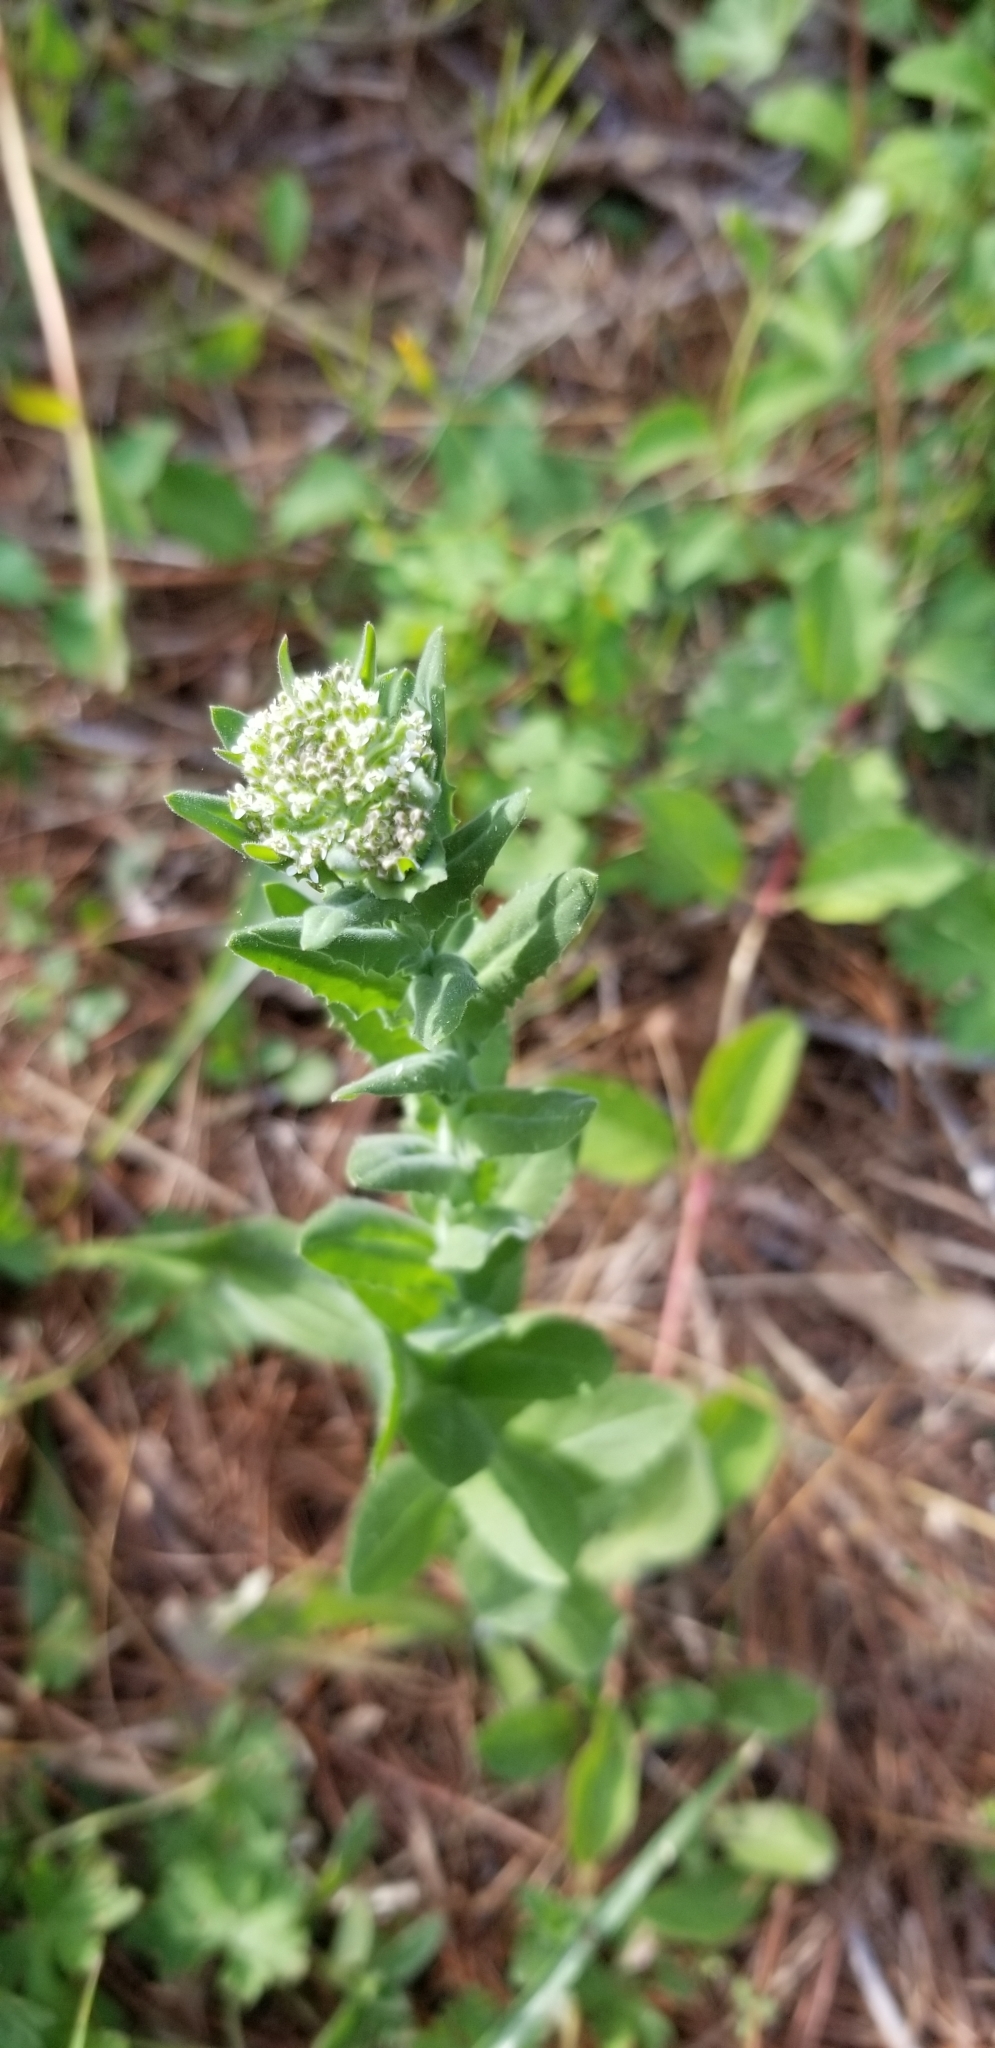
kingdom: Plantae
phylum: Tracheophyta
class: Magnoliopsida
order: Brassicales
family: Brassicaceae
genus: Lepidium
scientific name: Lepidium campestre
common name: Field pepperwort
